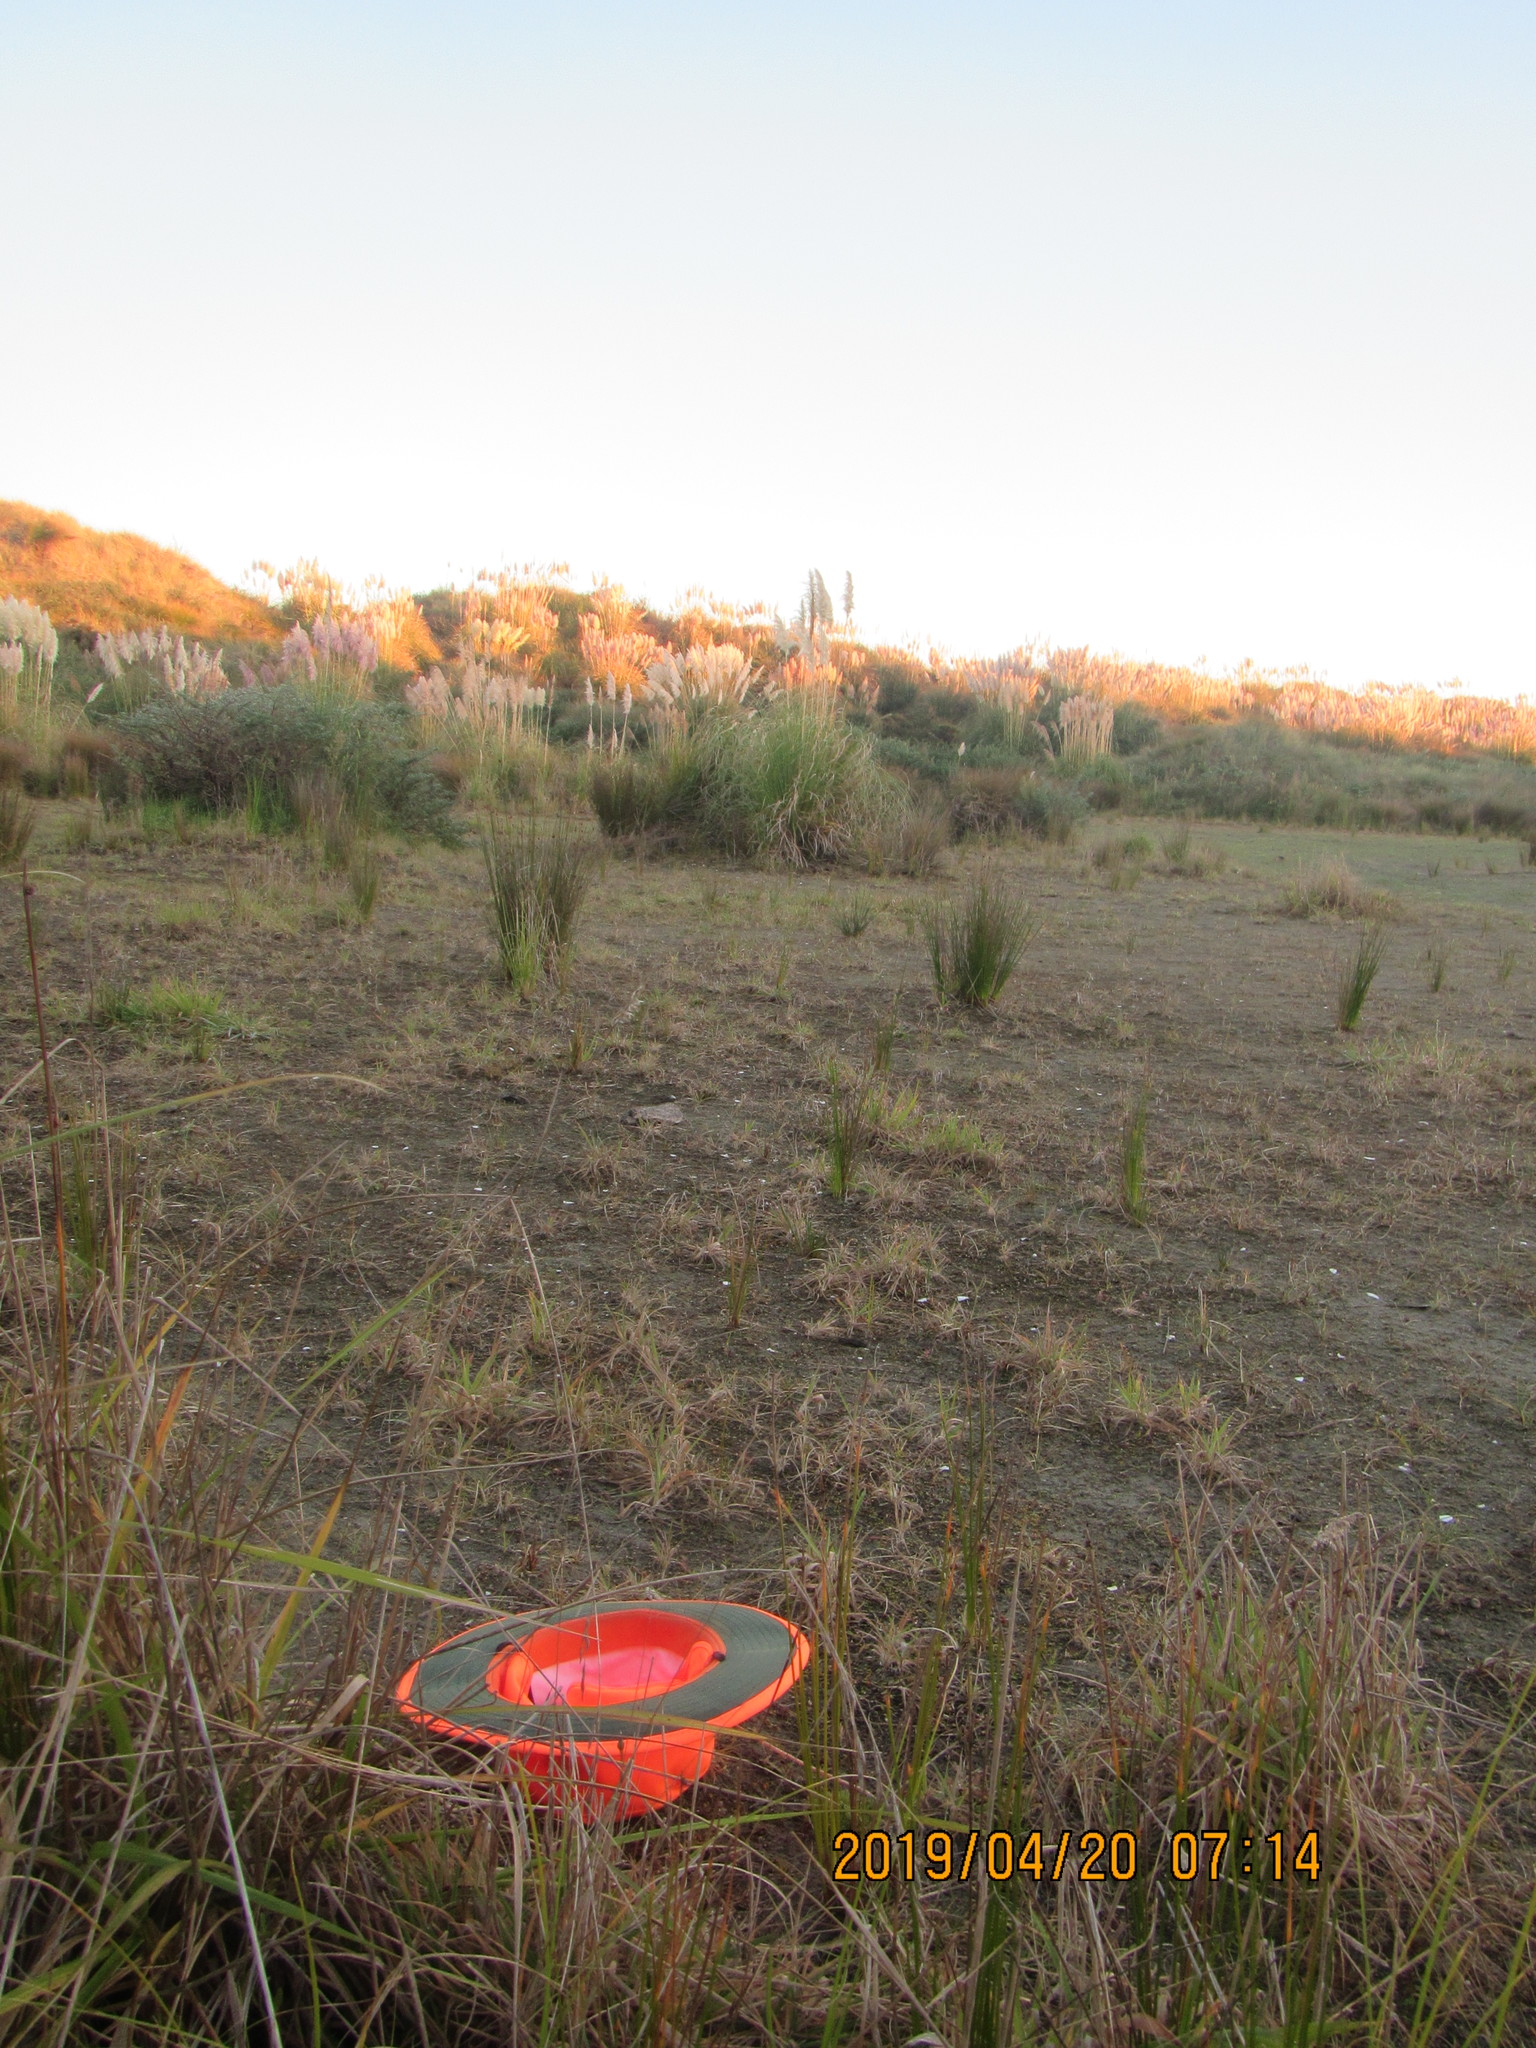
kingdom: Plantae
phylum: Tracheophyta
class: Magnoliopsida
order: Caryophyllales
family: Caryophyllaceae
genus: Sagina
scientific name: Sagina procumbens
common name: Procumbent pearlwort
